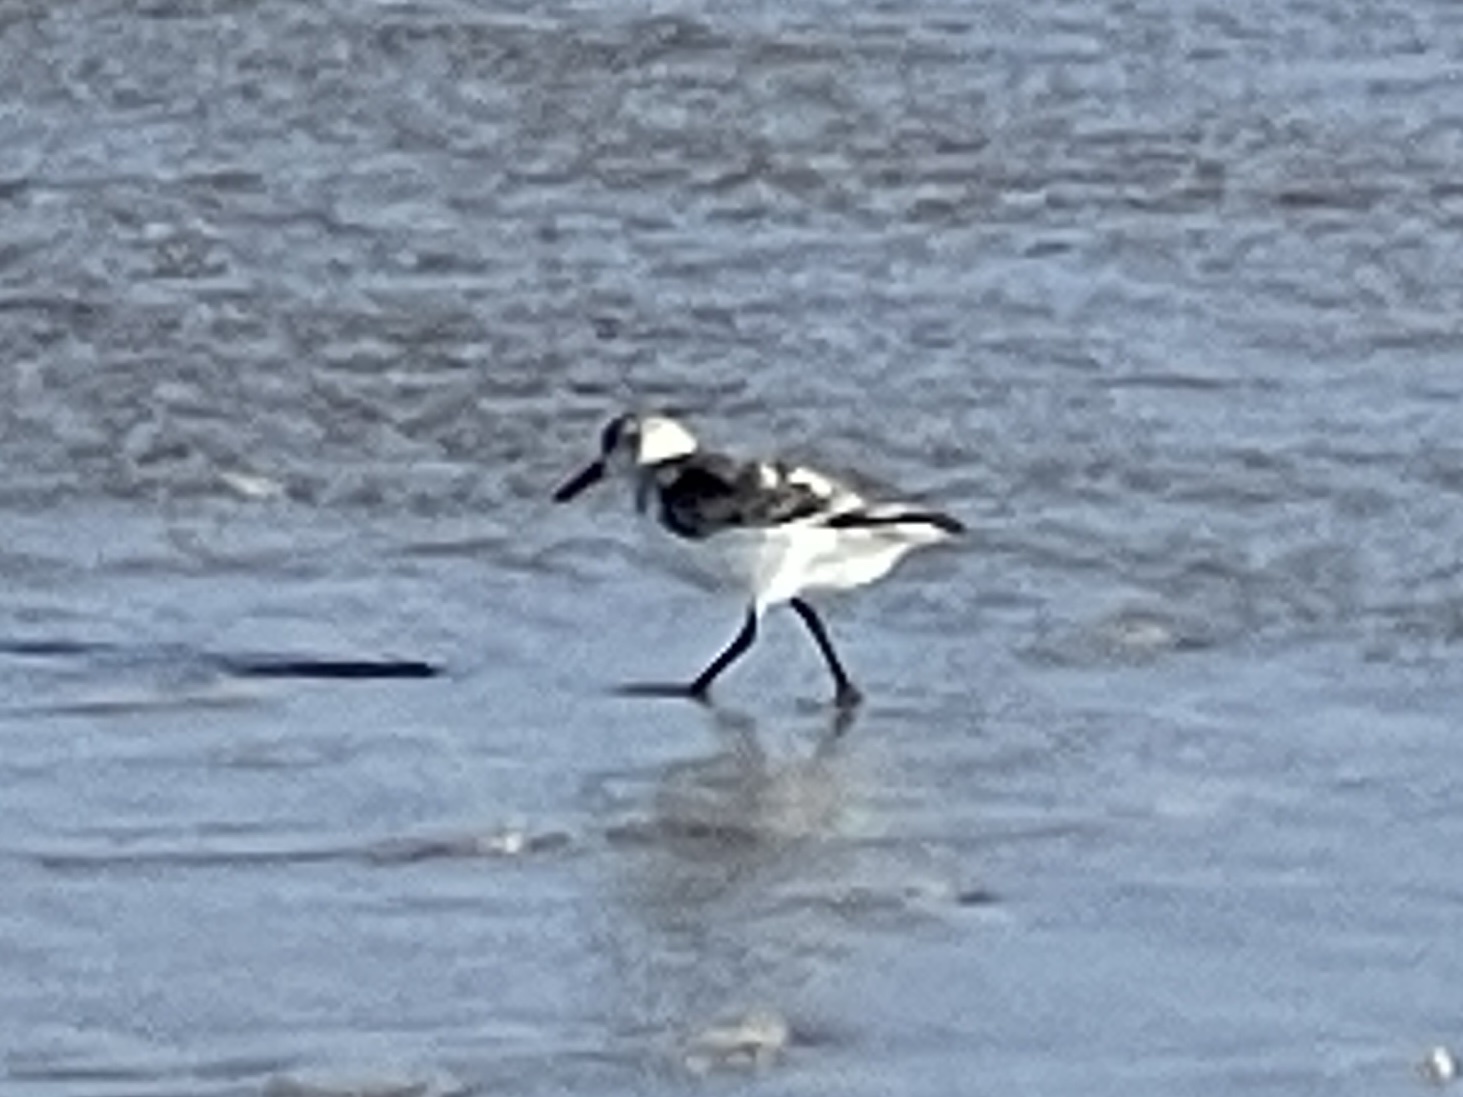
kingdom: Animalia
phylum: Chordata
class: Aves
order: Charadriiformes
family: Scolopacidae
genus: Calidris
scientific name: Calidris alba
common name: Sanderling
